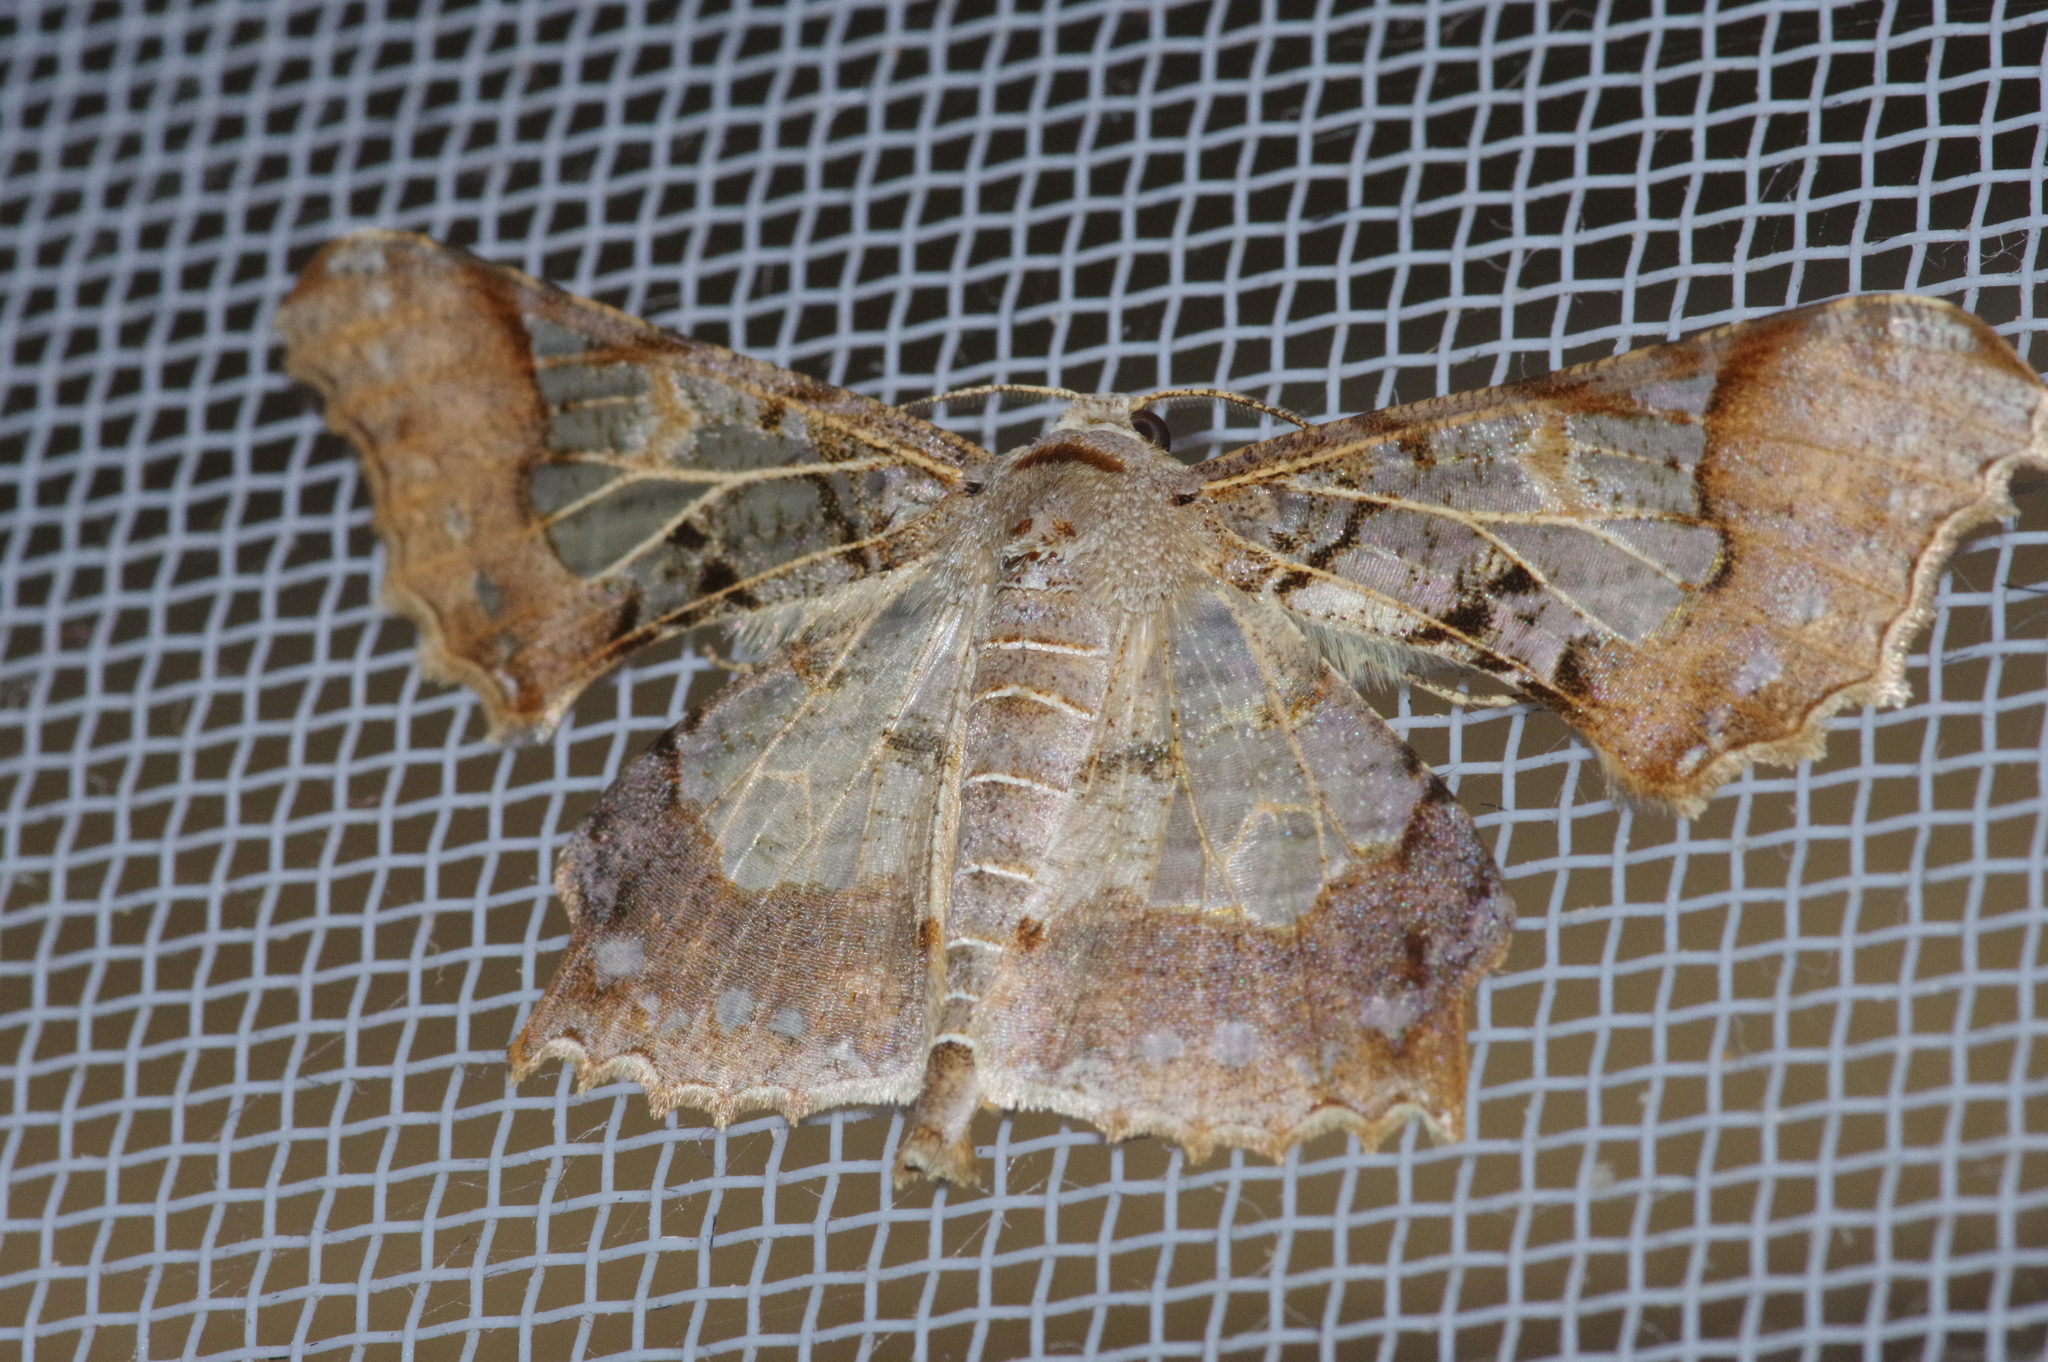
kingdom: Animalia
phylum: Arthropoda
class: Insecta
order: Lepidoptera
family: Geometridae
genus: Krananda
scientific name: Krananda semihyalina
